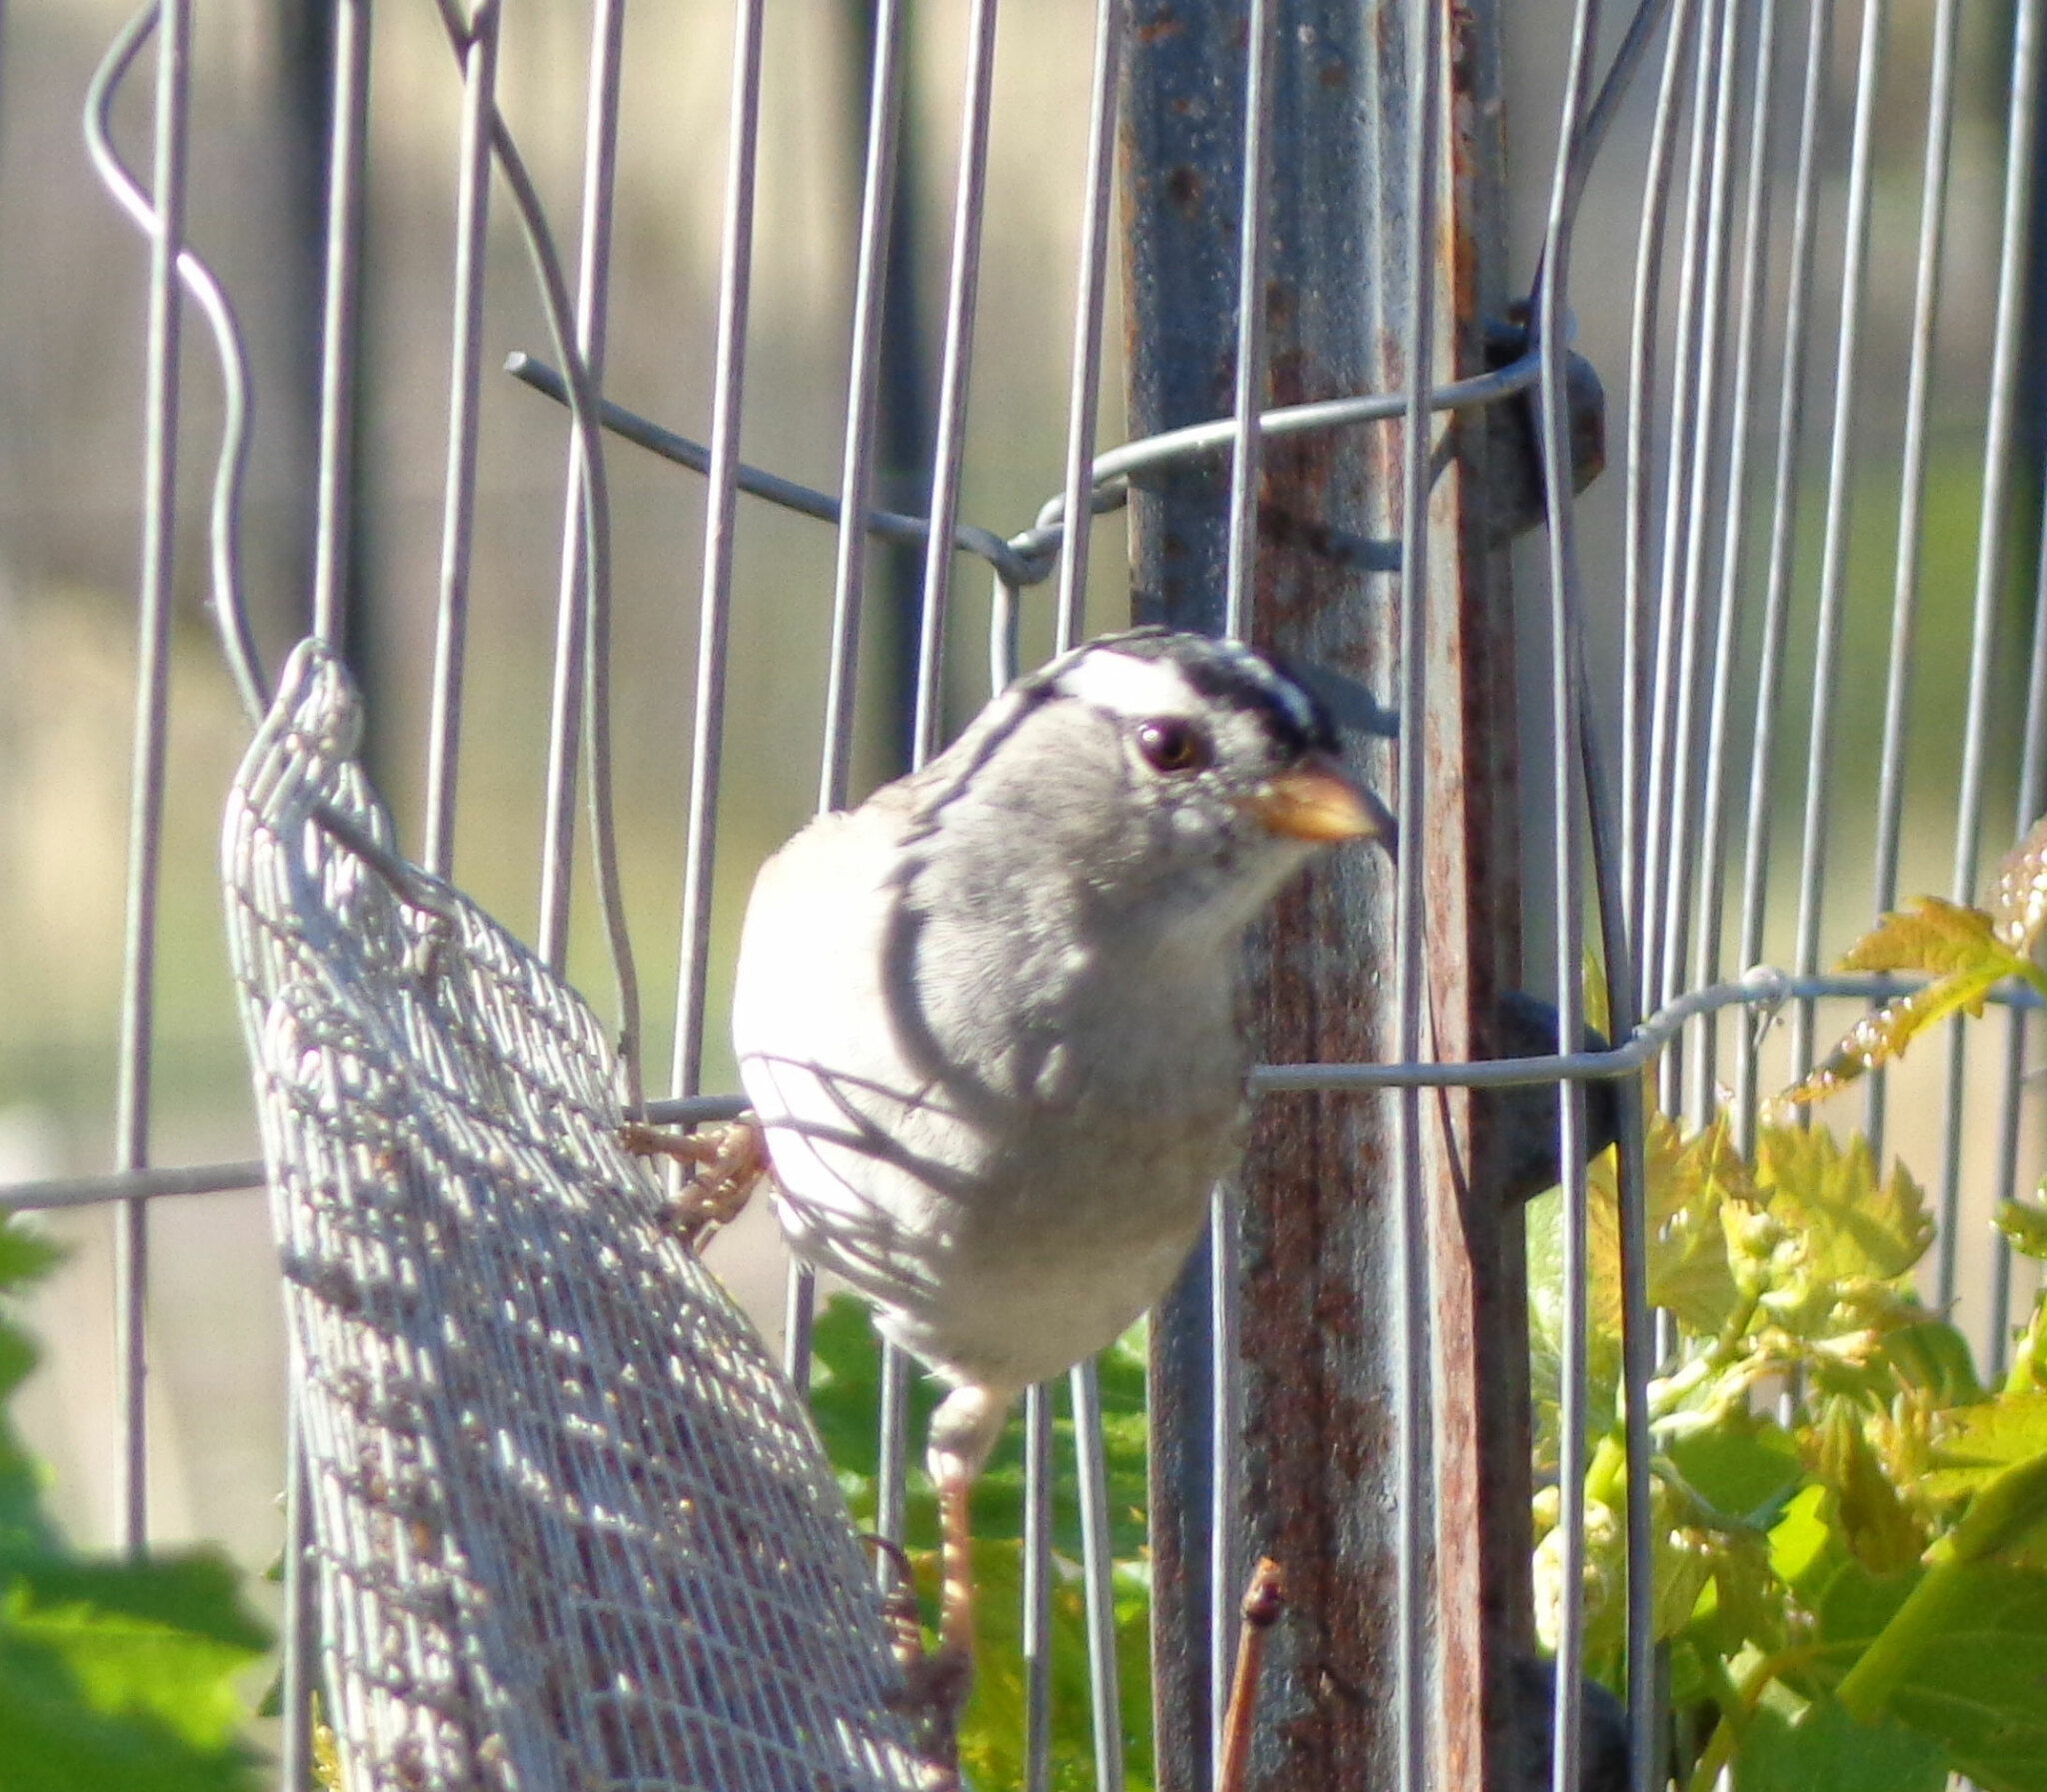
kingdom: Animalia
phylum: Chordata
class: Aves
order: Passeriformes
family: Passerellidae
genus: Zonotrichia
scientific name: Zonotrichia leucophrys
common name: White-crowned sparrow
